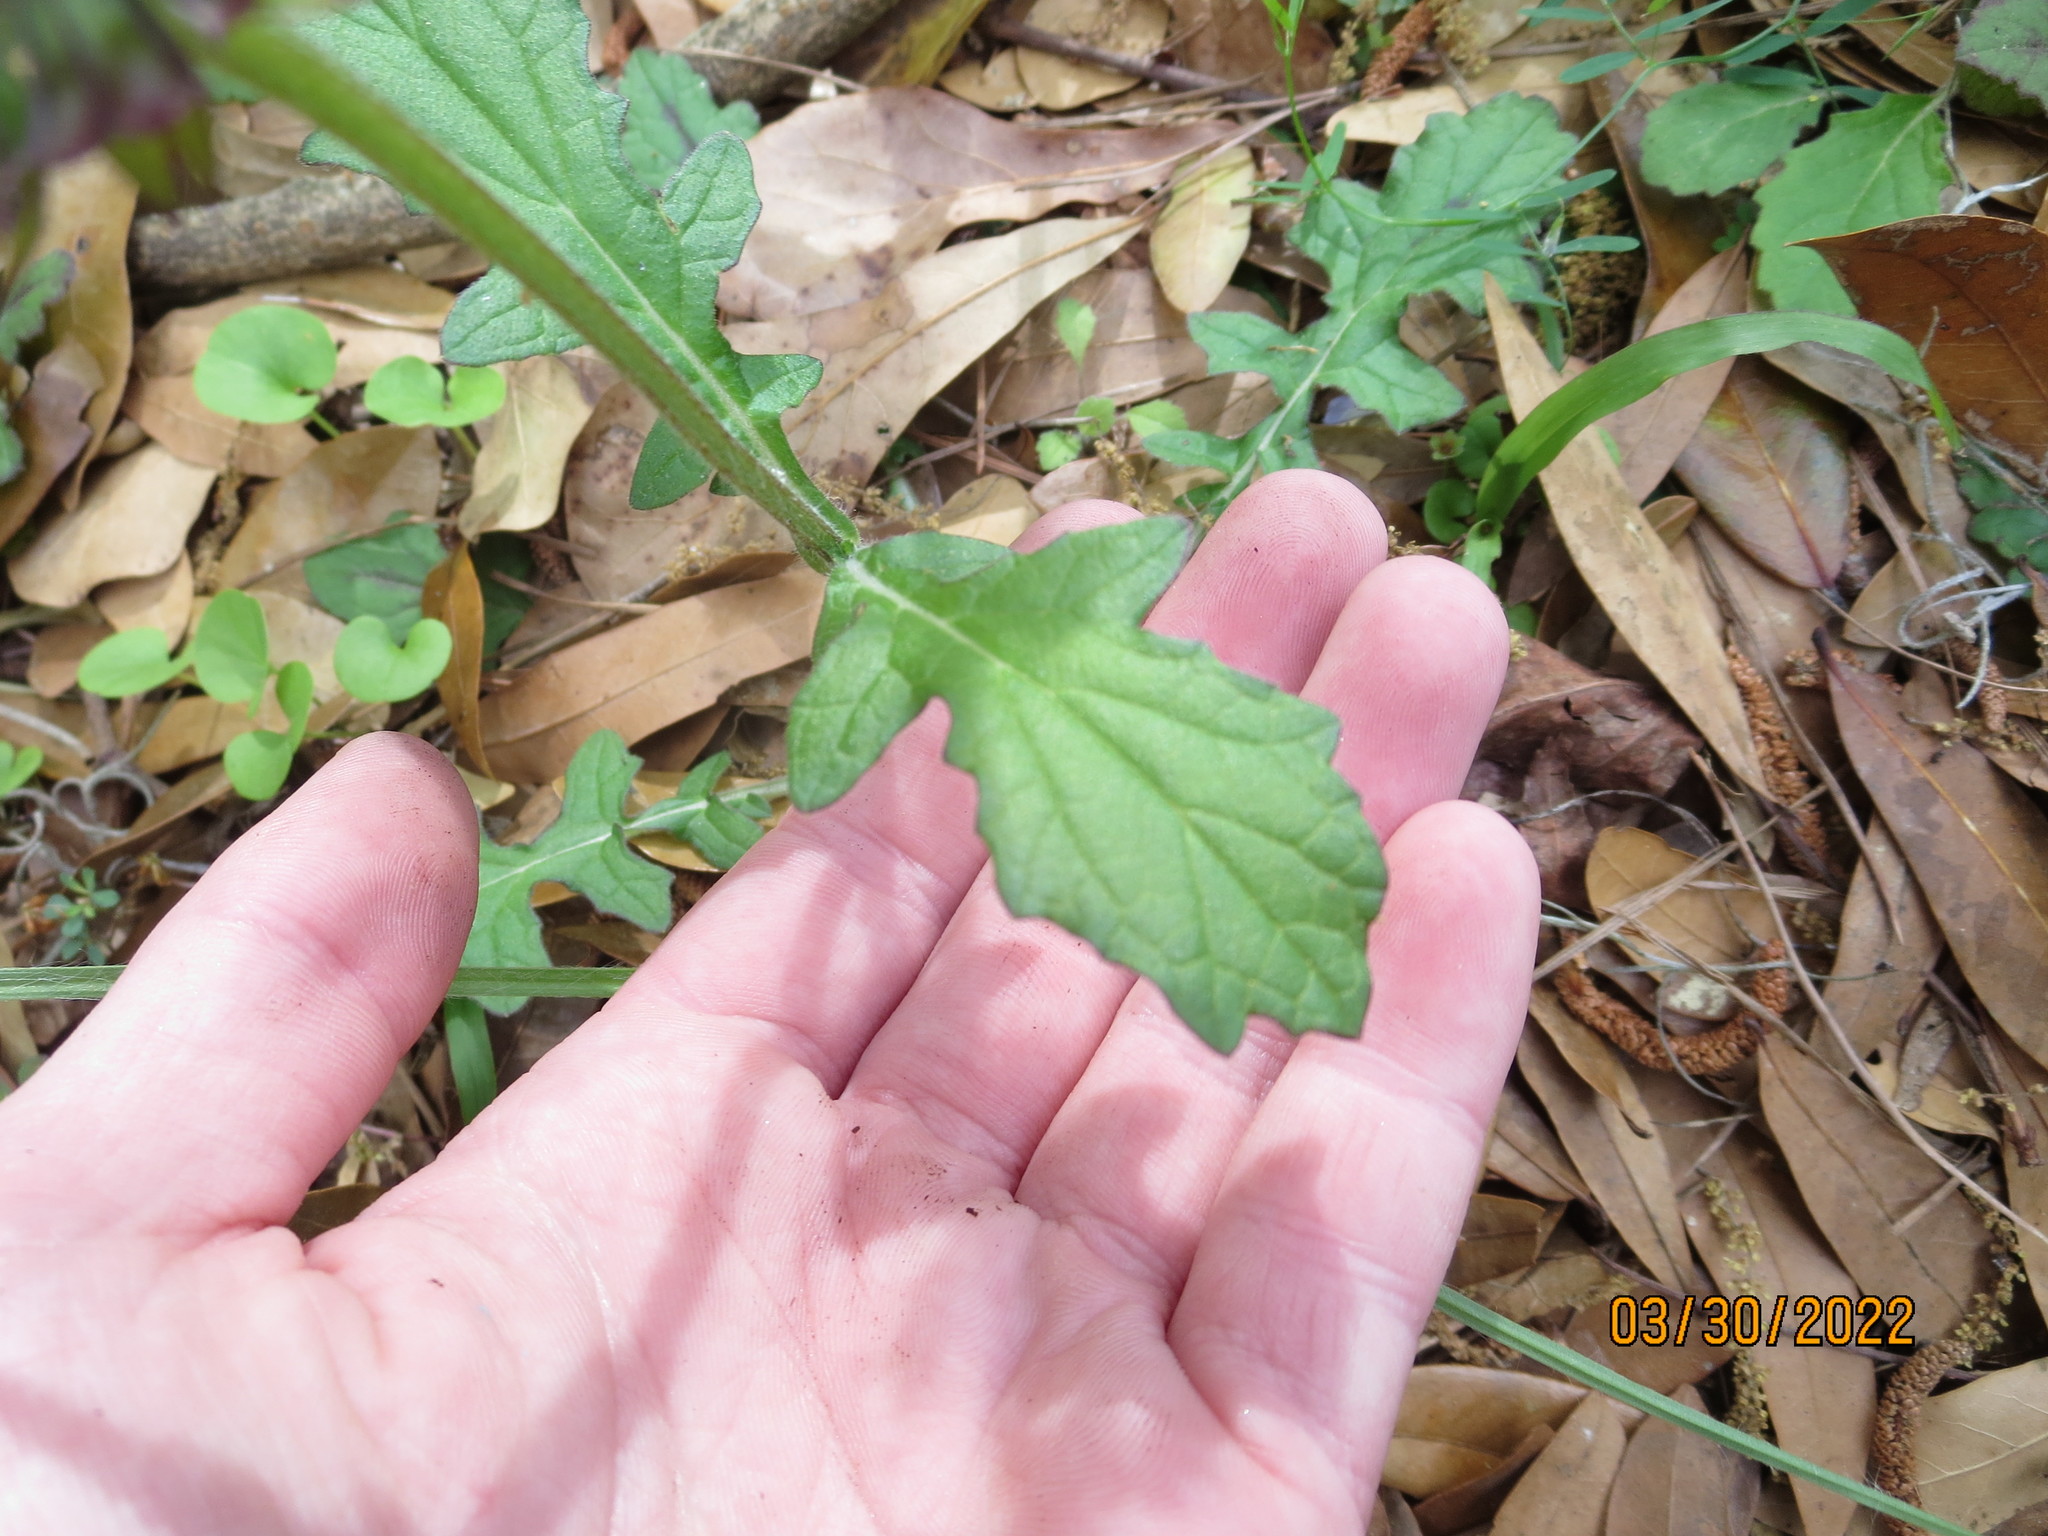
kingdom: Plantae
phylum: Tracheophyta
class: Magnoliopsida
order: Lamiales
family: Lamiaceae
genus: Salvia
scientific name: Salvia lyrata
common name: Cancerweed
